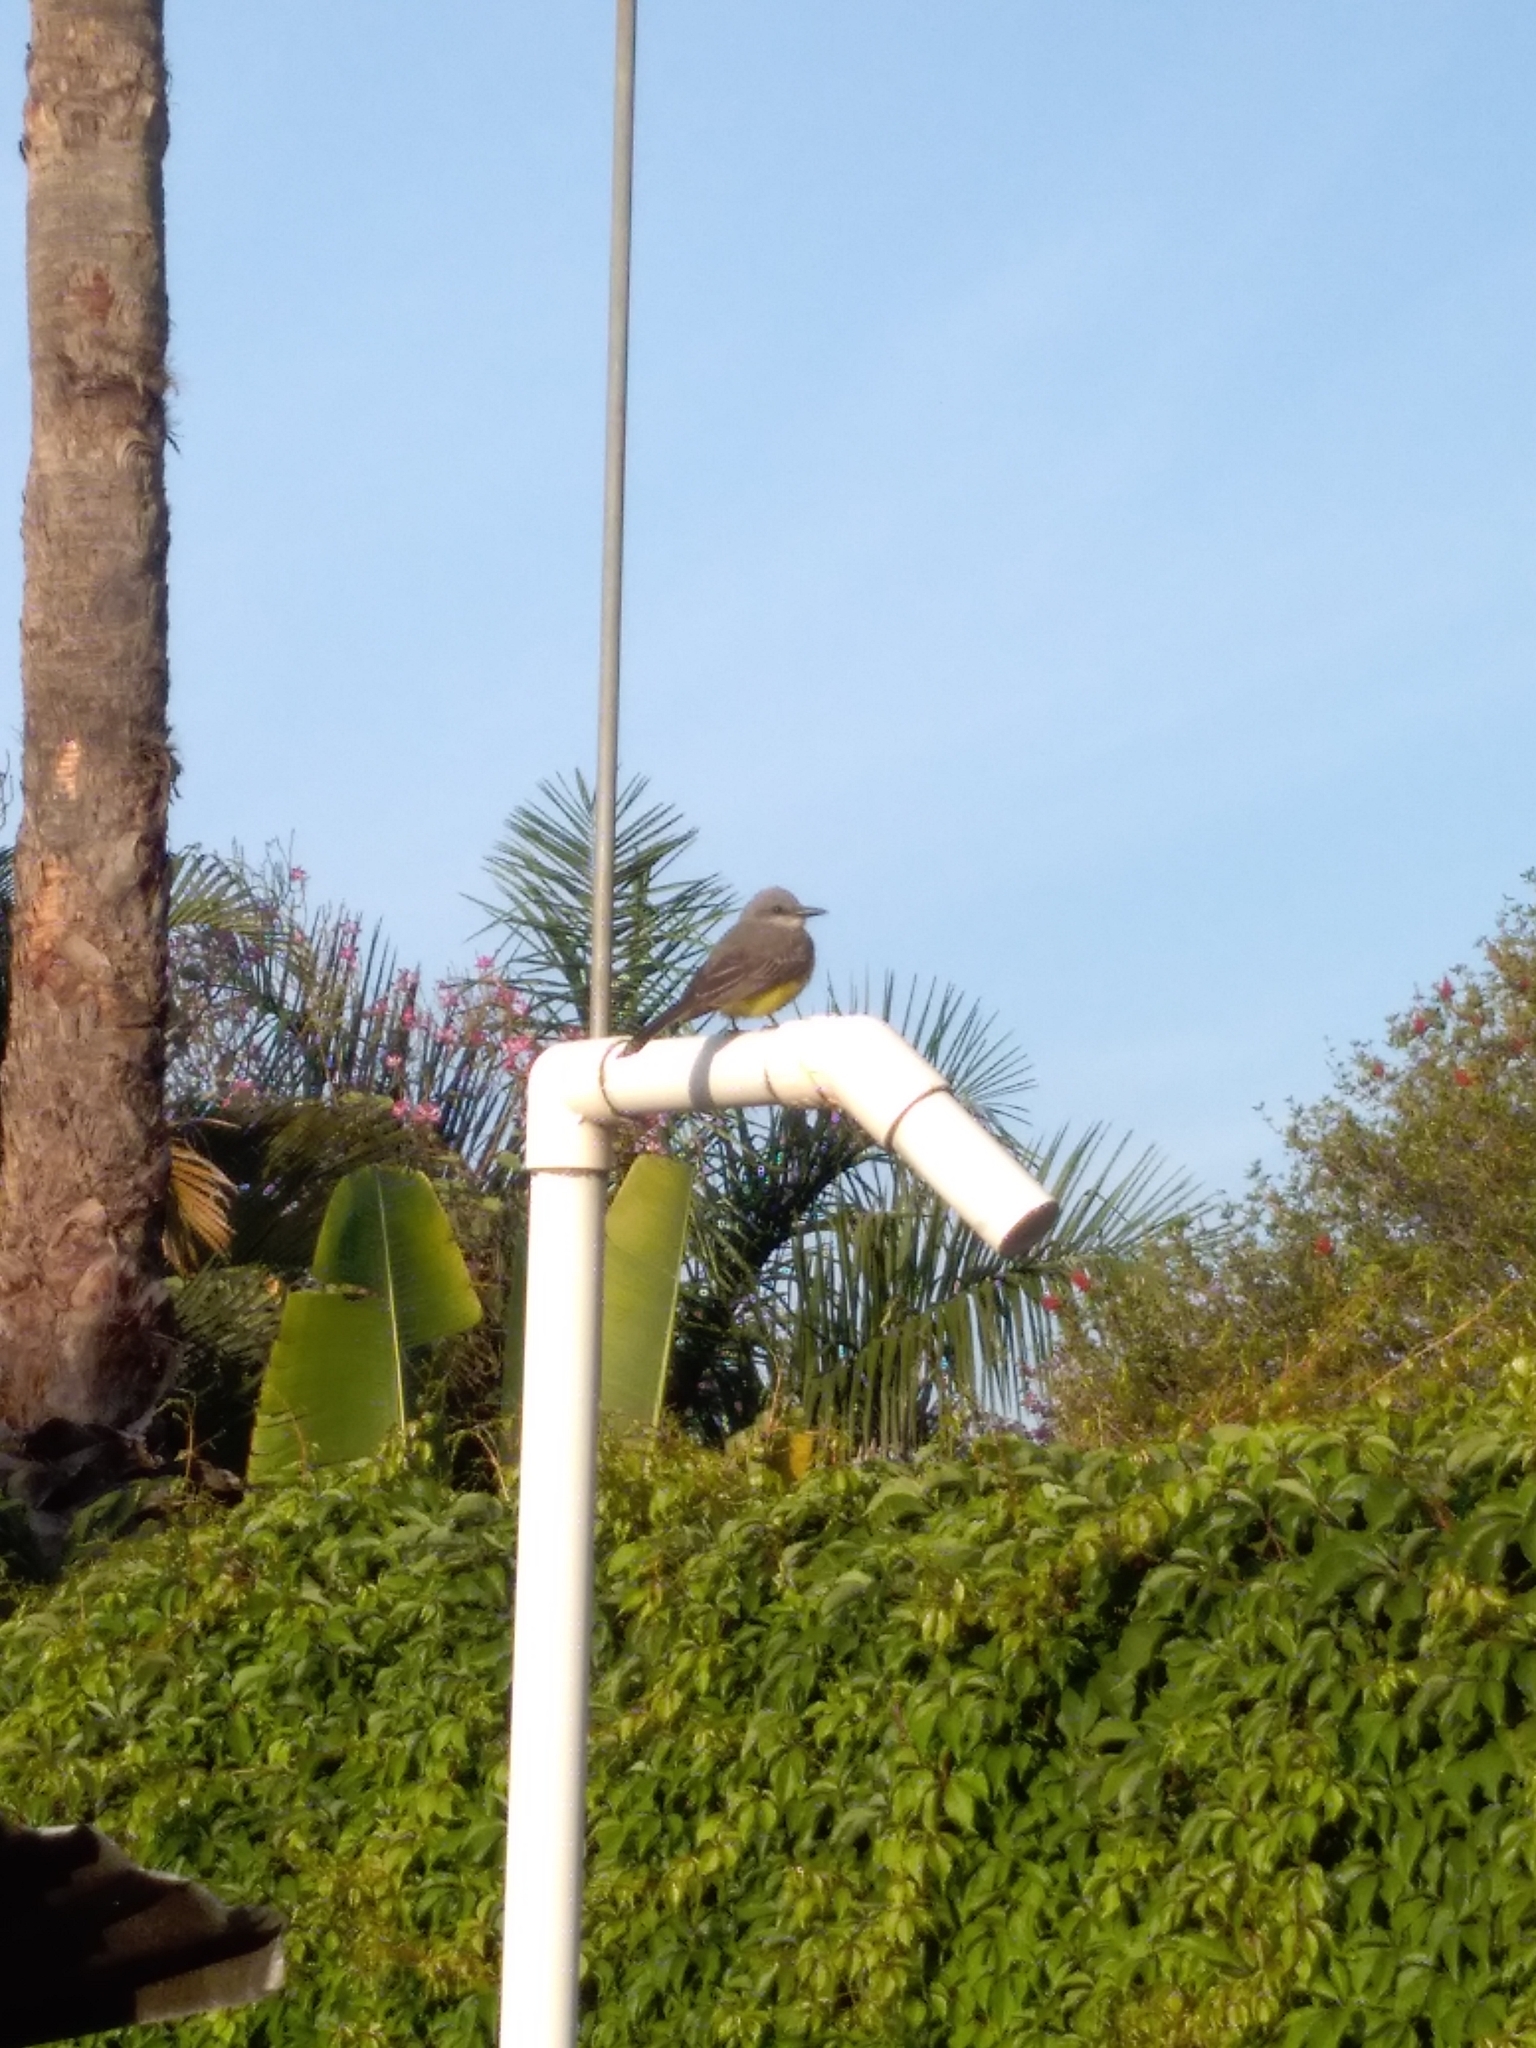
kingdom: Animalia
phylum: Chordata
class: Aves
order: Passeriformes
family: Tyrannidae
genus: Tyrannus
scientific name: Tyrannus melancholicus
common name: Tropical kingbird
